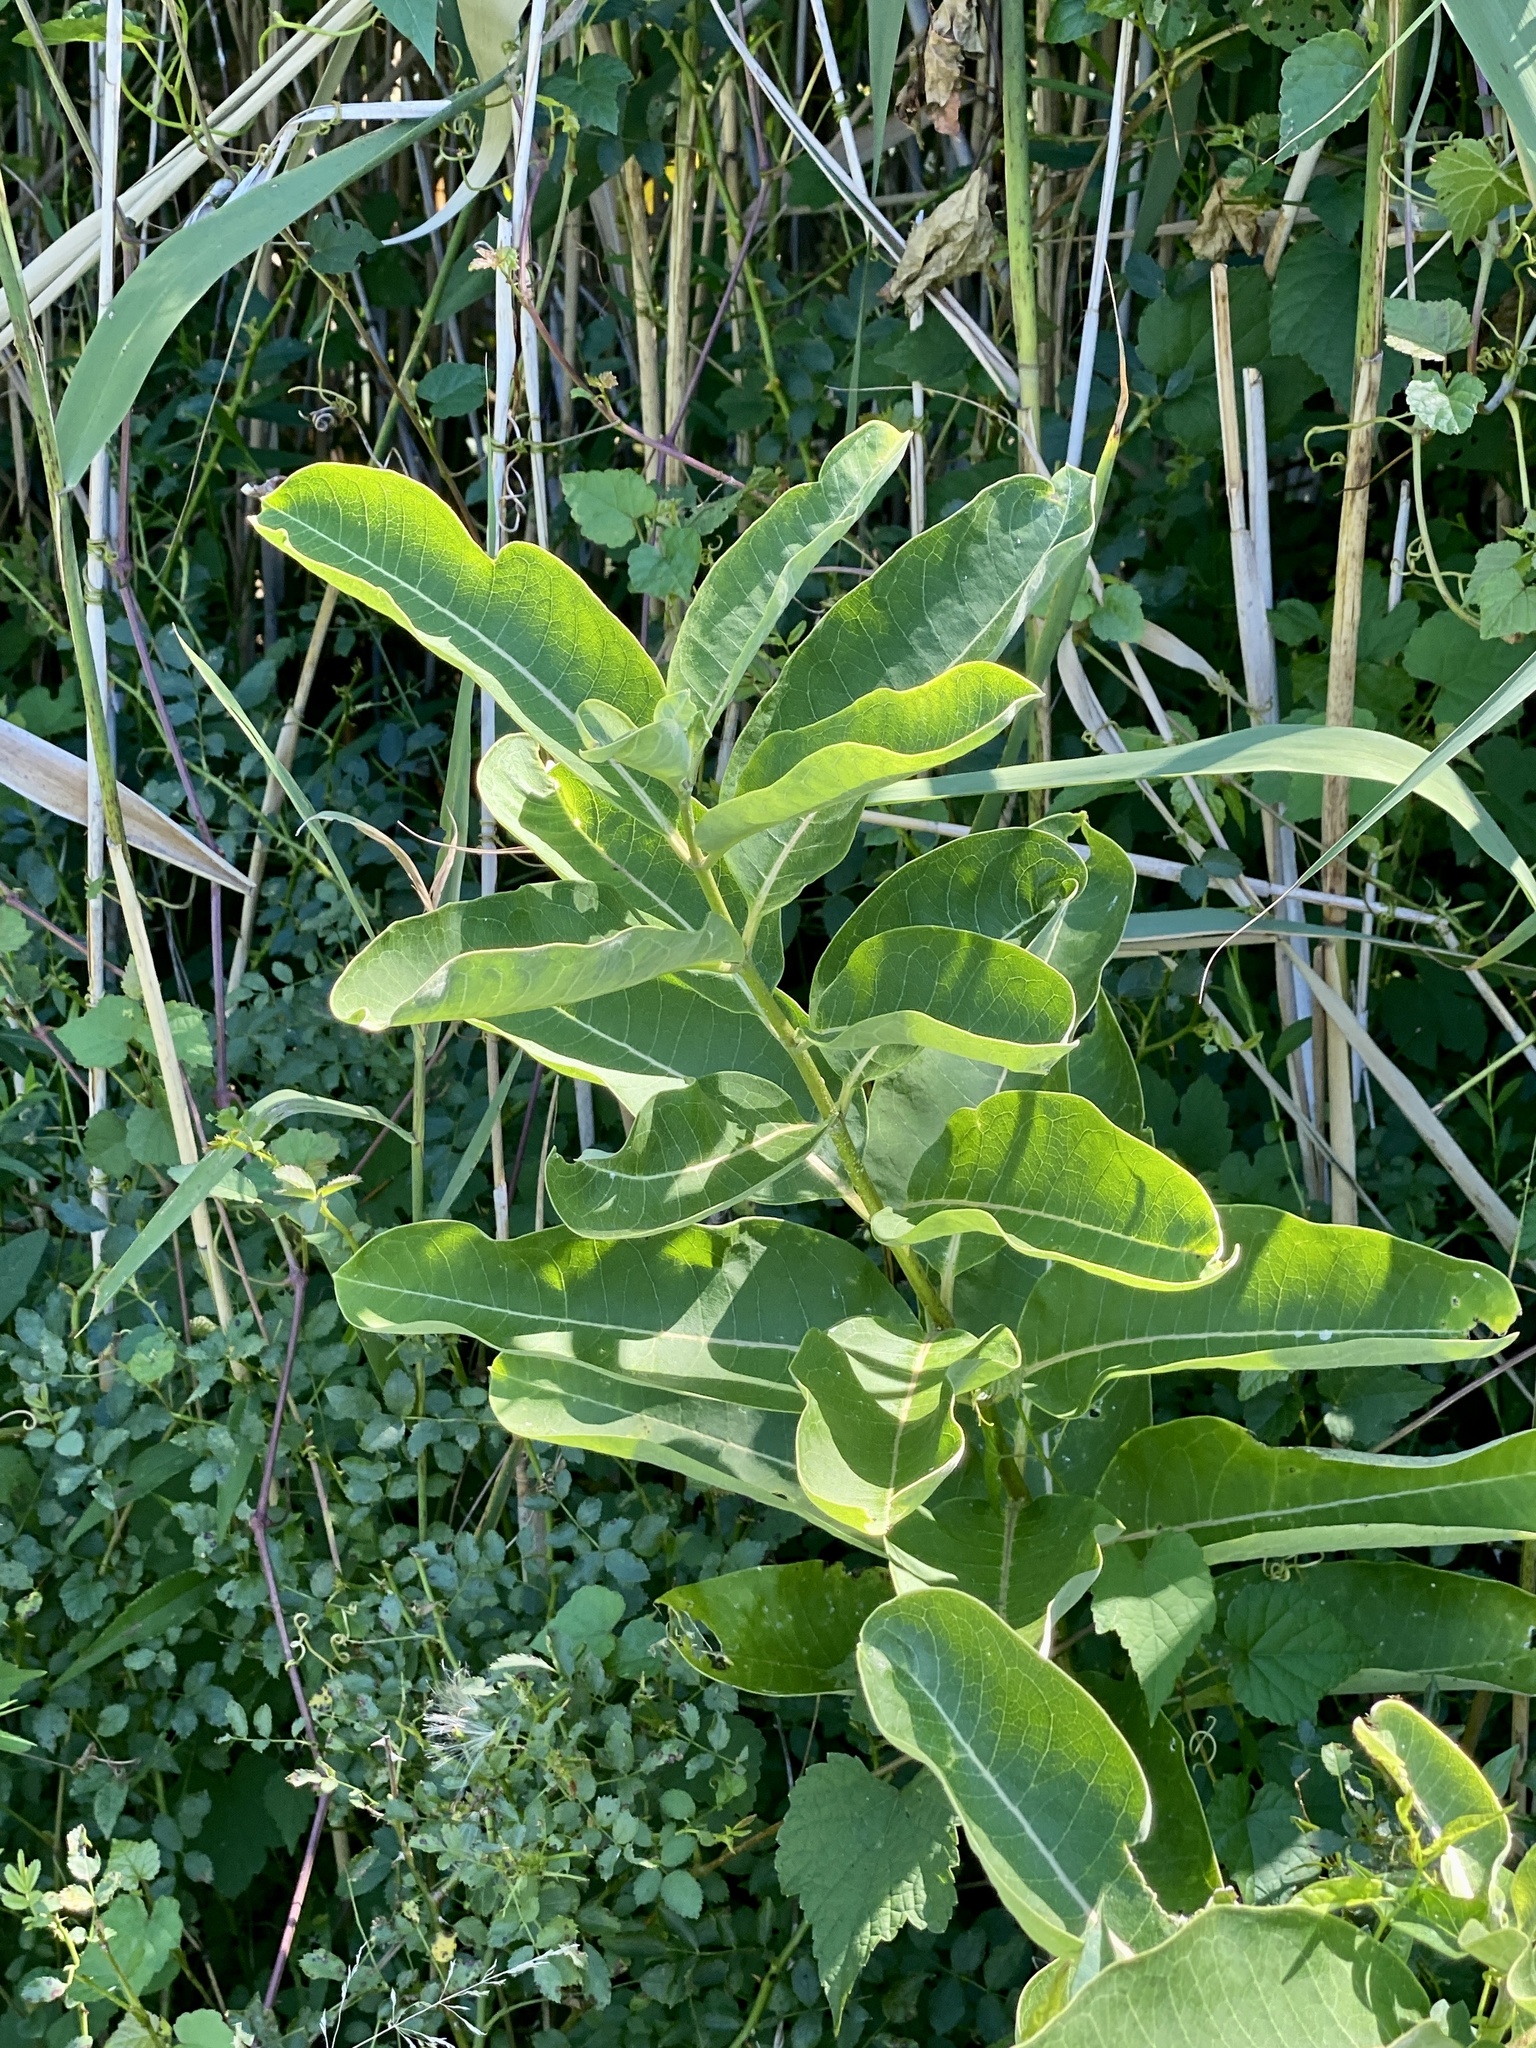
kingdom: Plantae
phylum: Tracheophyta
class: Magnoliopsida
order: Gentianales
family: Apocynaceae
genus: Asclepias
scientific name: Asclepias syriaca
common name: Common milkweed
